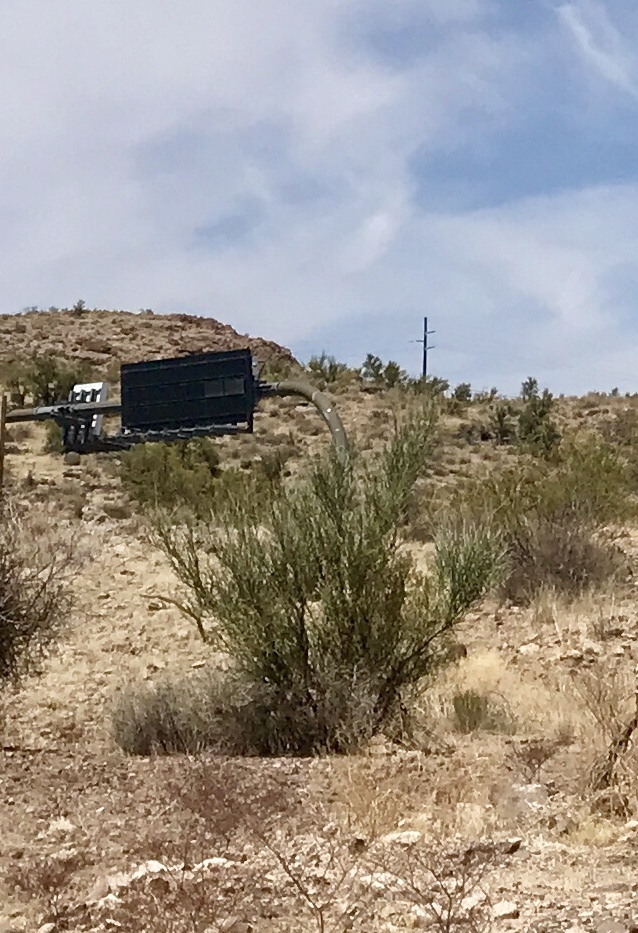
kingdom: Plantae
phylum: Tracheophyta
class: Magnoliopsida
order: Celastrales
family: Celastraceae
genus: Canotia
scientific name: Canotia holacantha
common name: Crucifixion thorns
